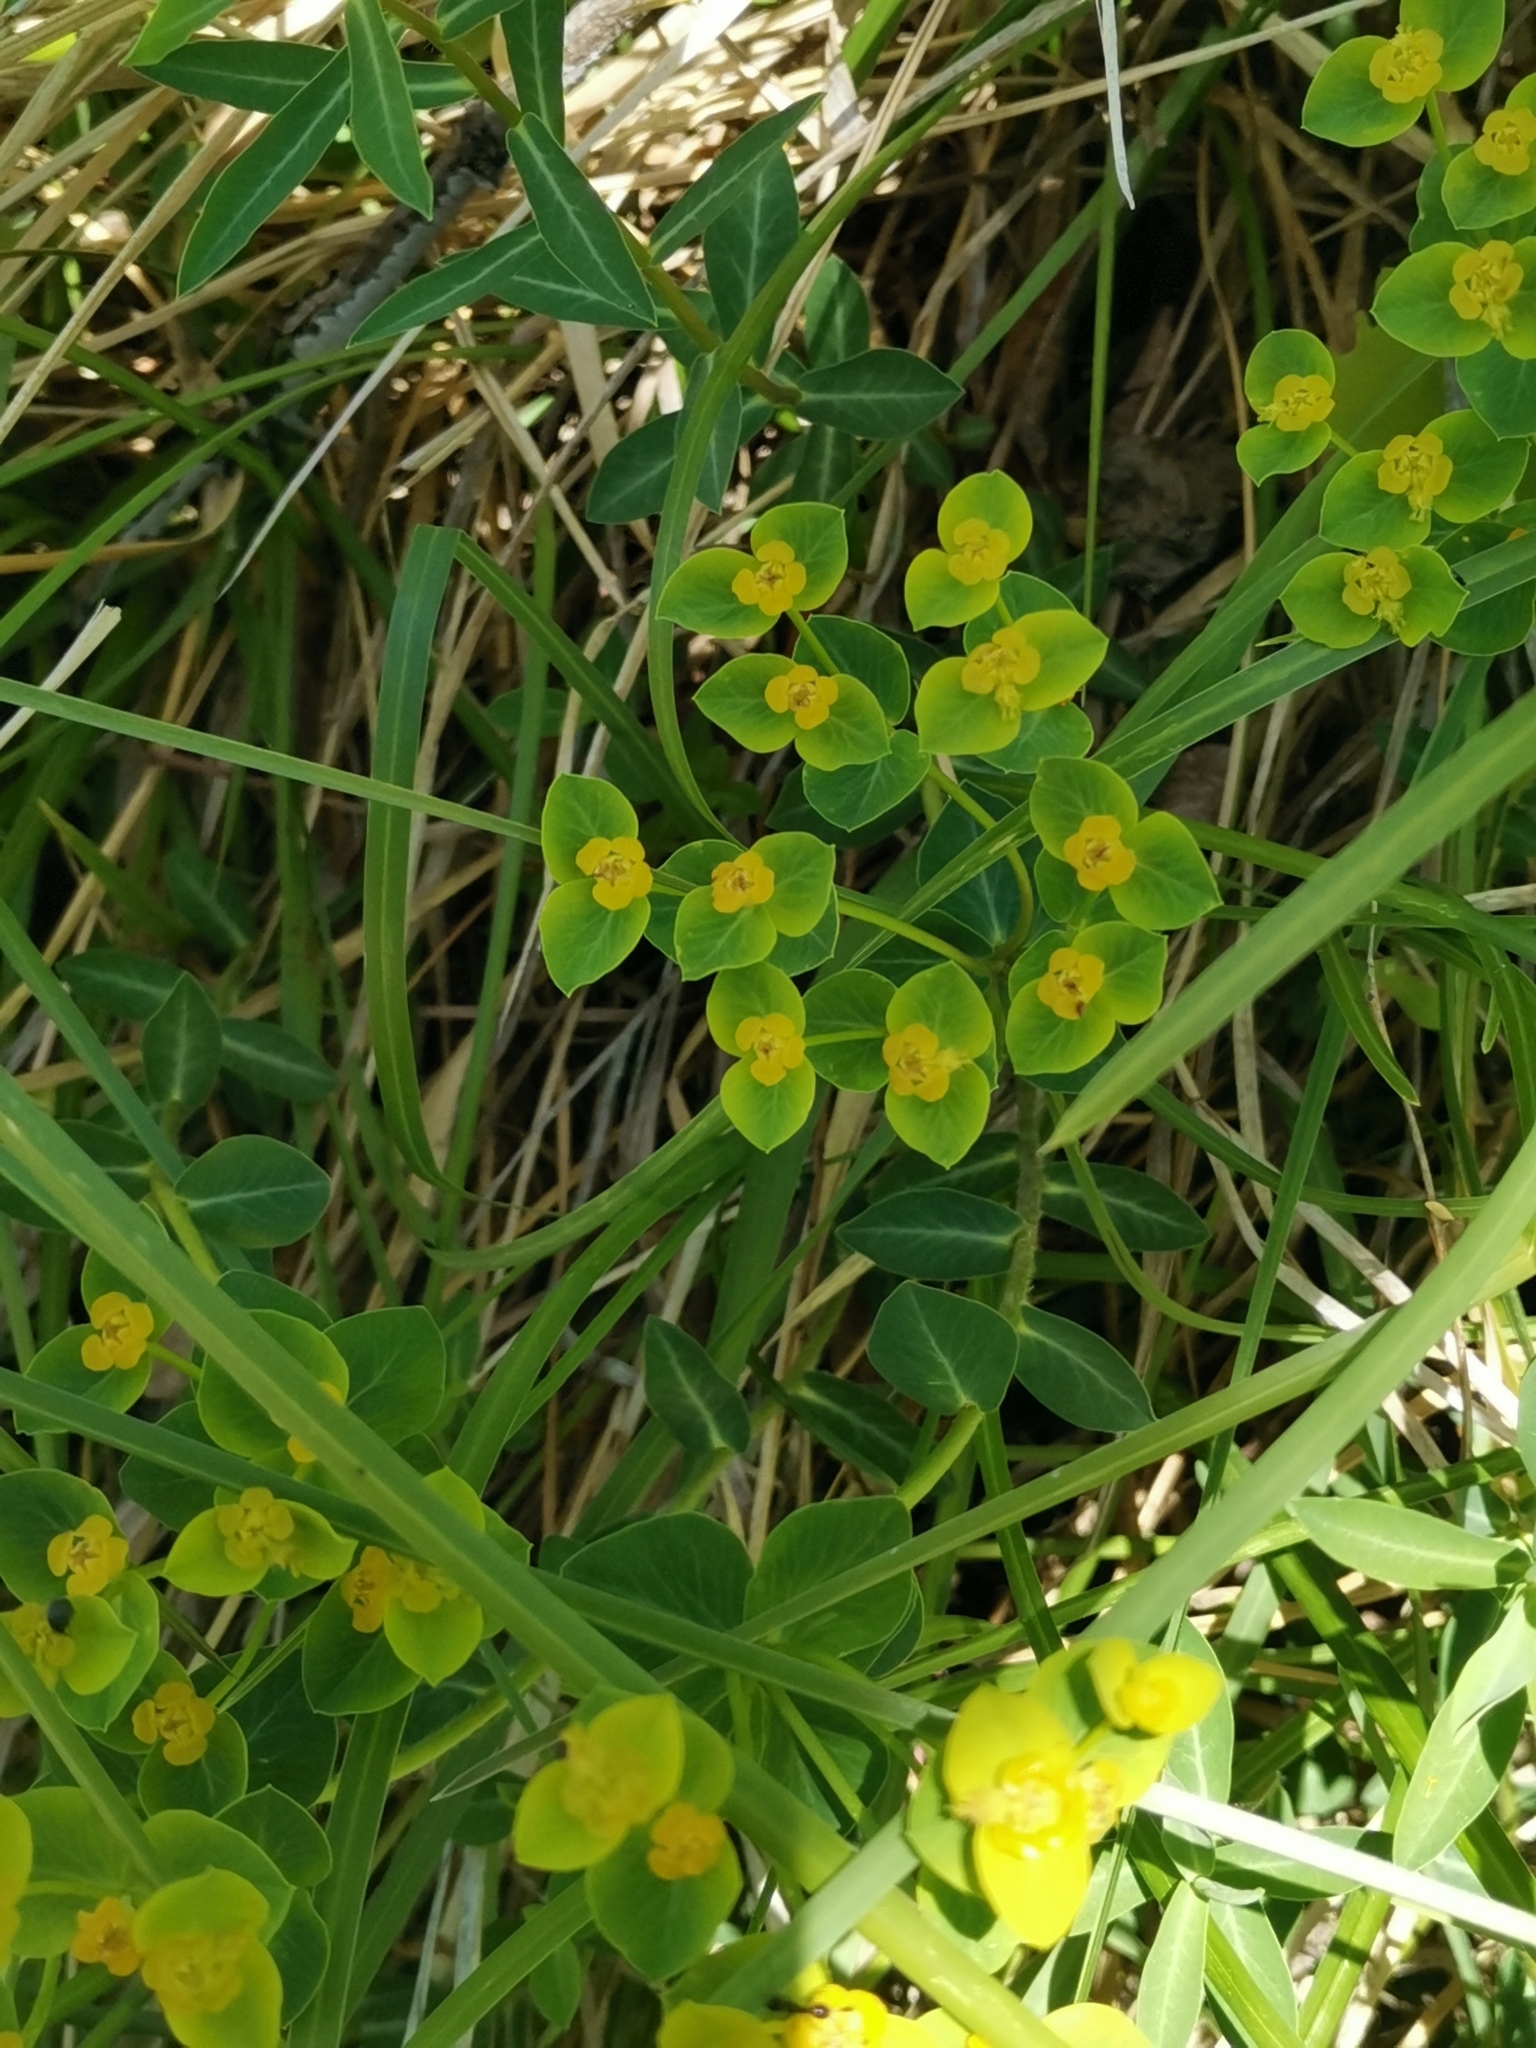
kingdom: Plantae
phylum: Tracheophyta
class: Magnoliopsida
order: Malpighiales
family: Euphorbiaceae
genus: Euphorbia
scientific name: Euphorbia fragifera
